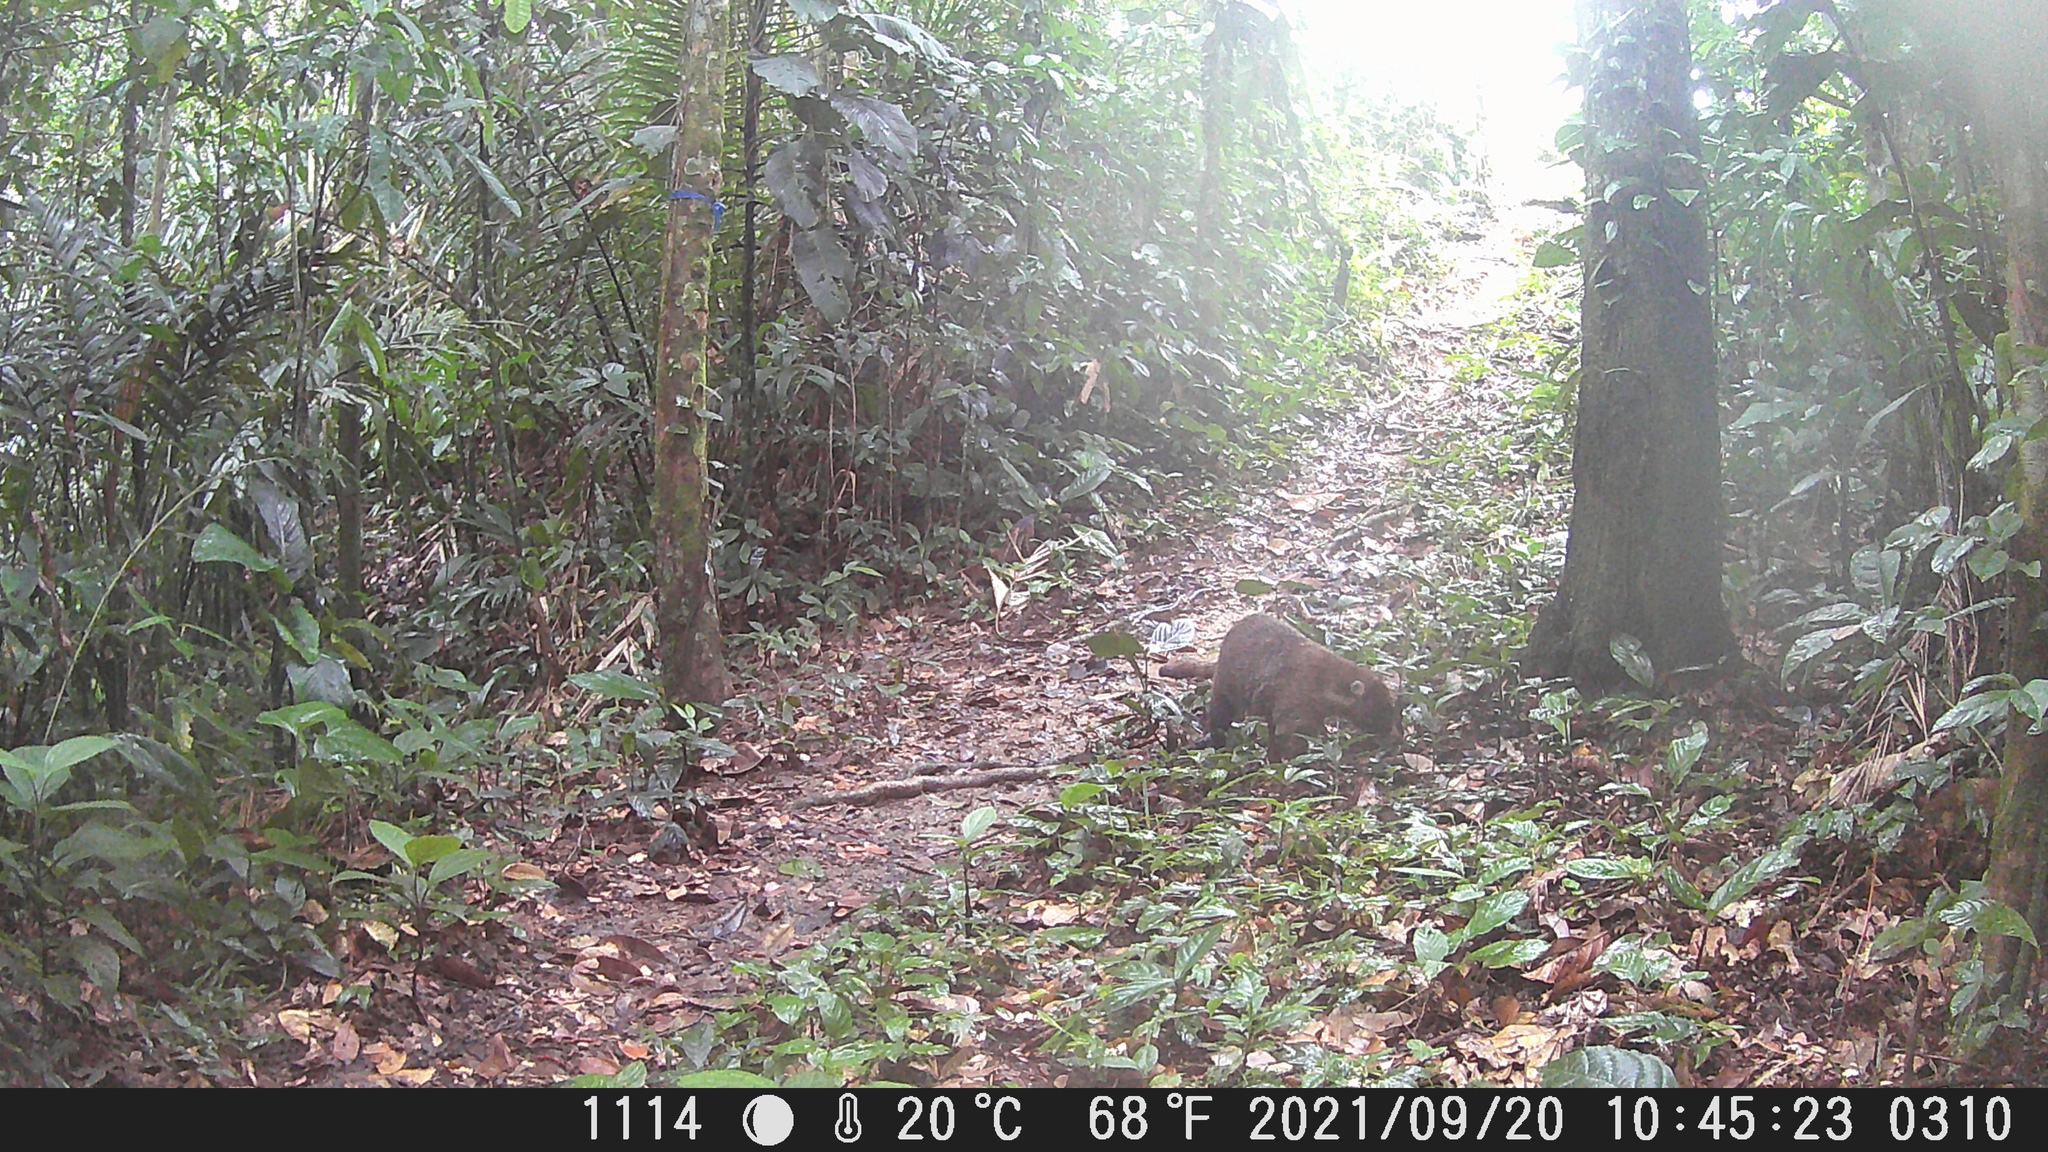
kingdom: Animalia
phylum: Chordata
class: Mammalia
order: Carnivora
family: Procyonidae
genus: Nasua
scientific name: Nasua narica
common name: White-nosed coati
